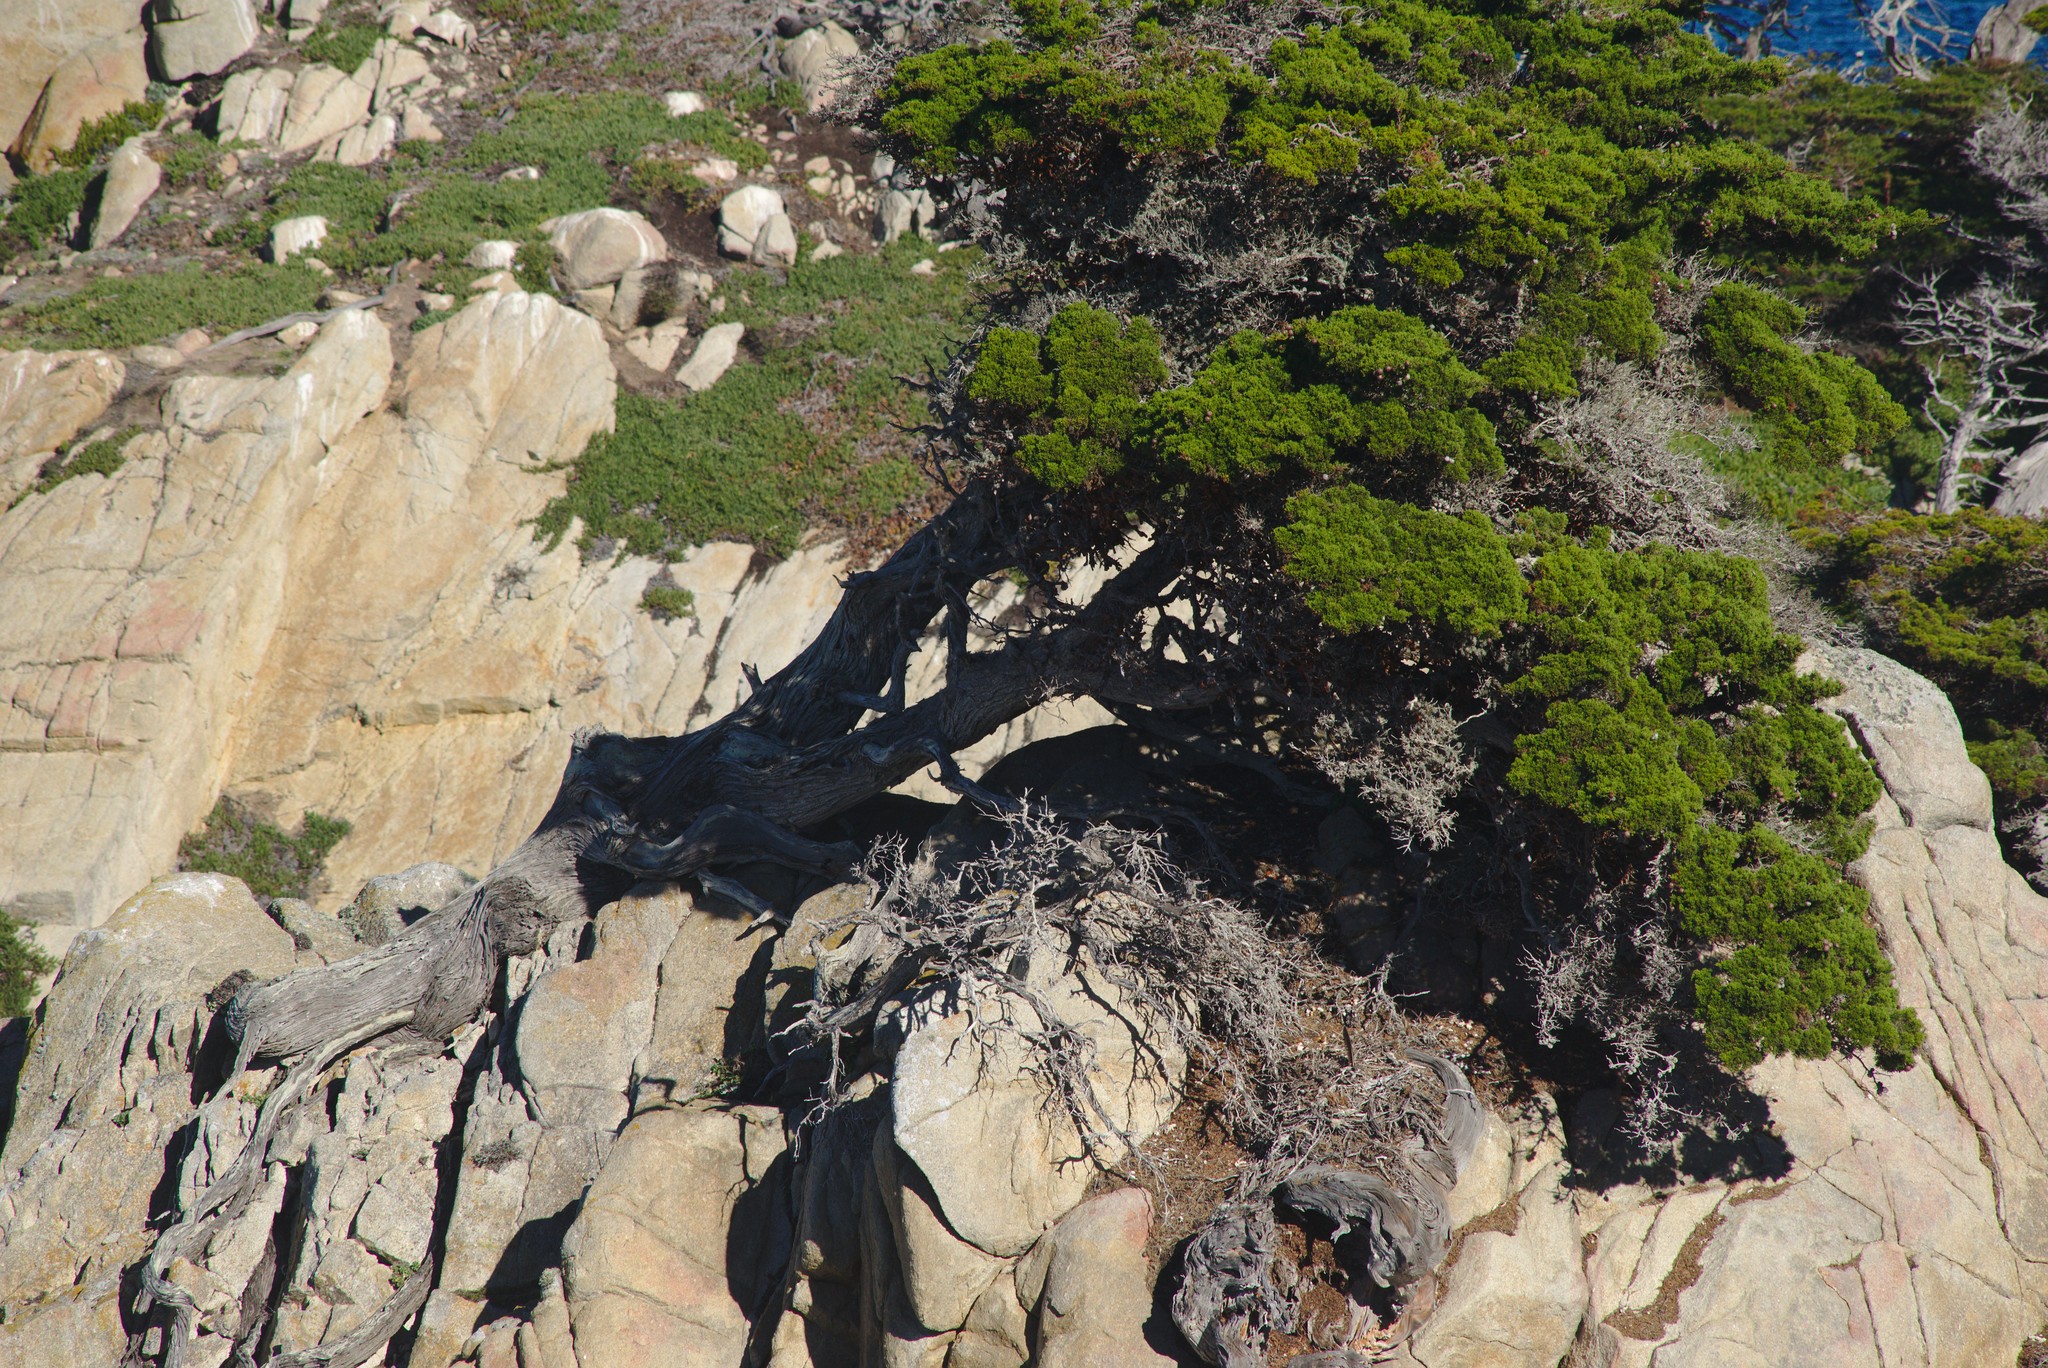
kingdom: Plantae
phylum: Tracheophyta
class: Pinopsida
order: Pinales
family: Cupressaceae
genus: Cupressus
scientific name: Cupressus macrocarpa
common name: Monterey cypress
